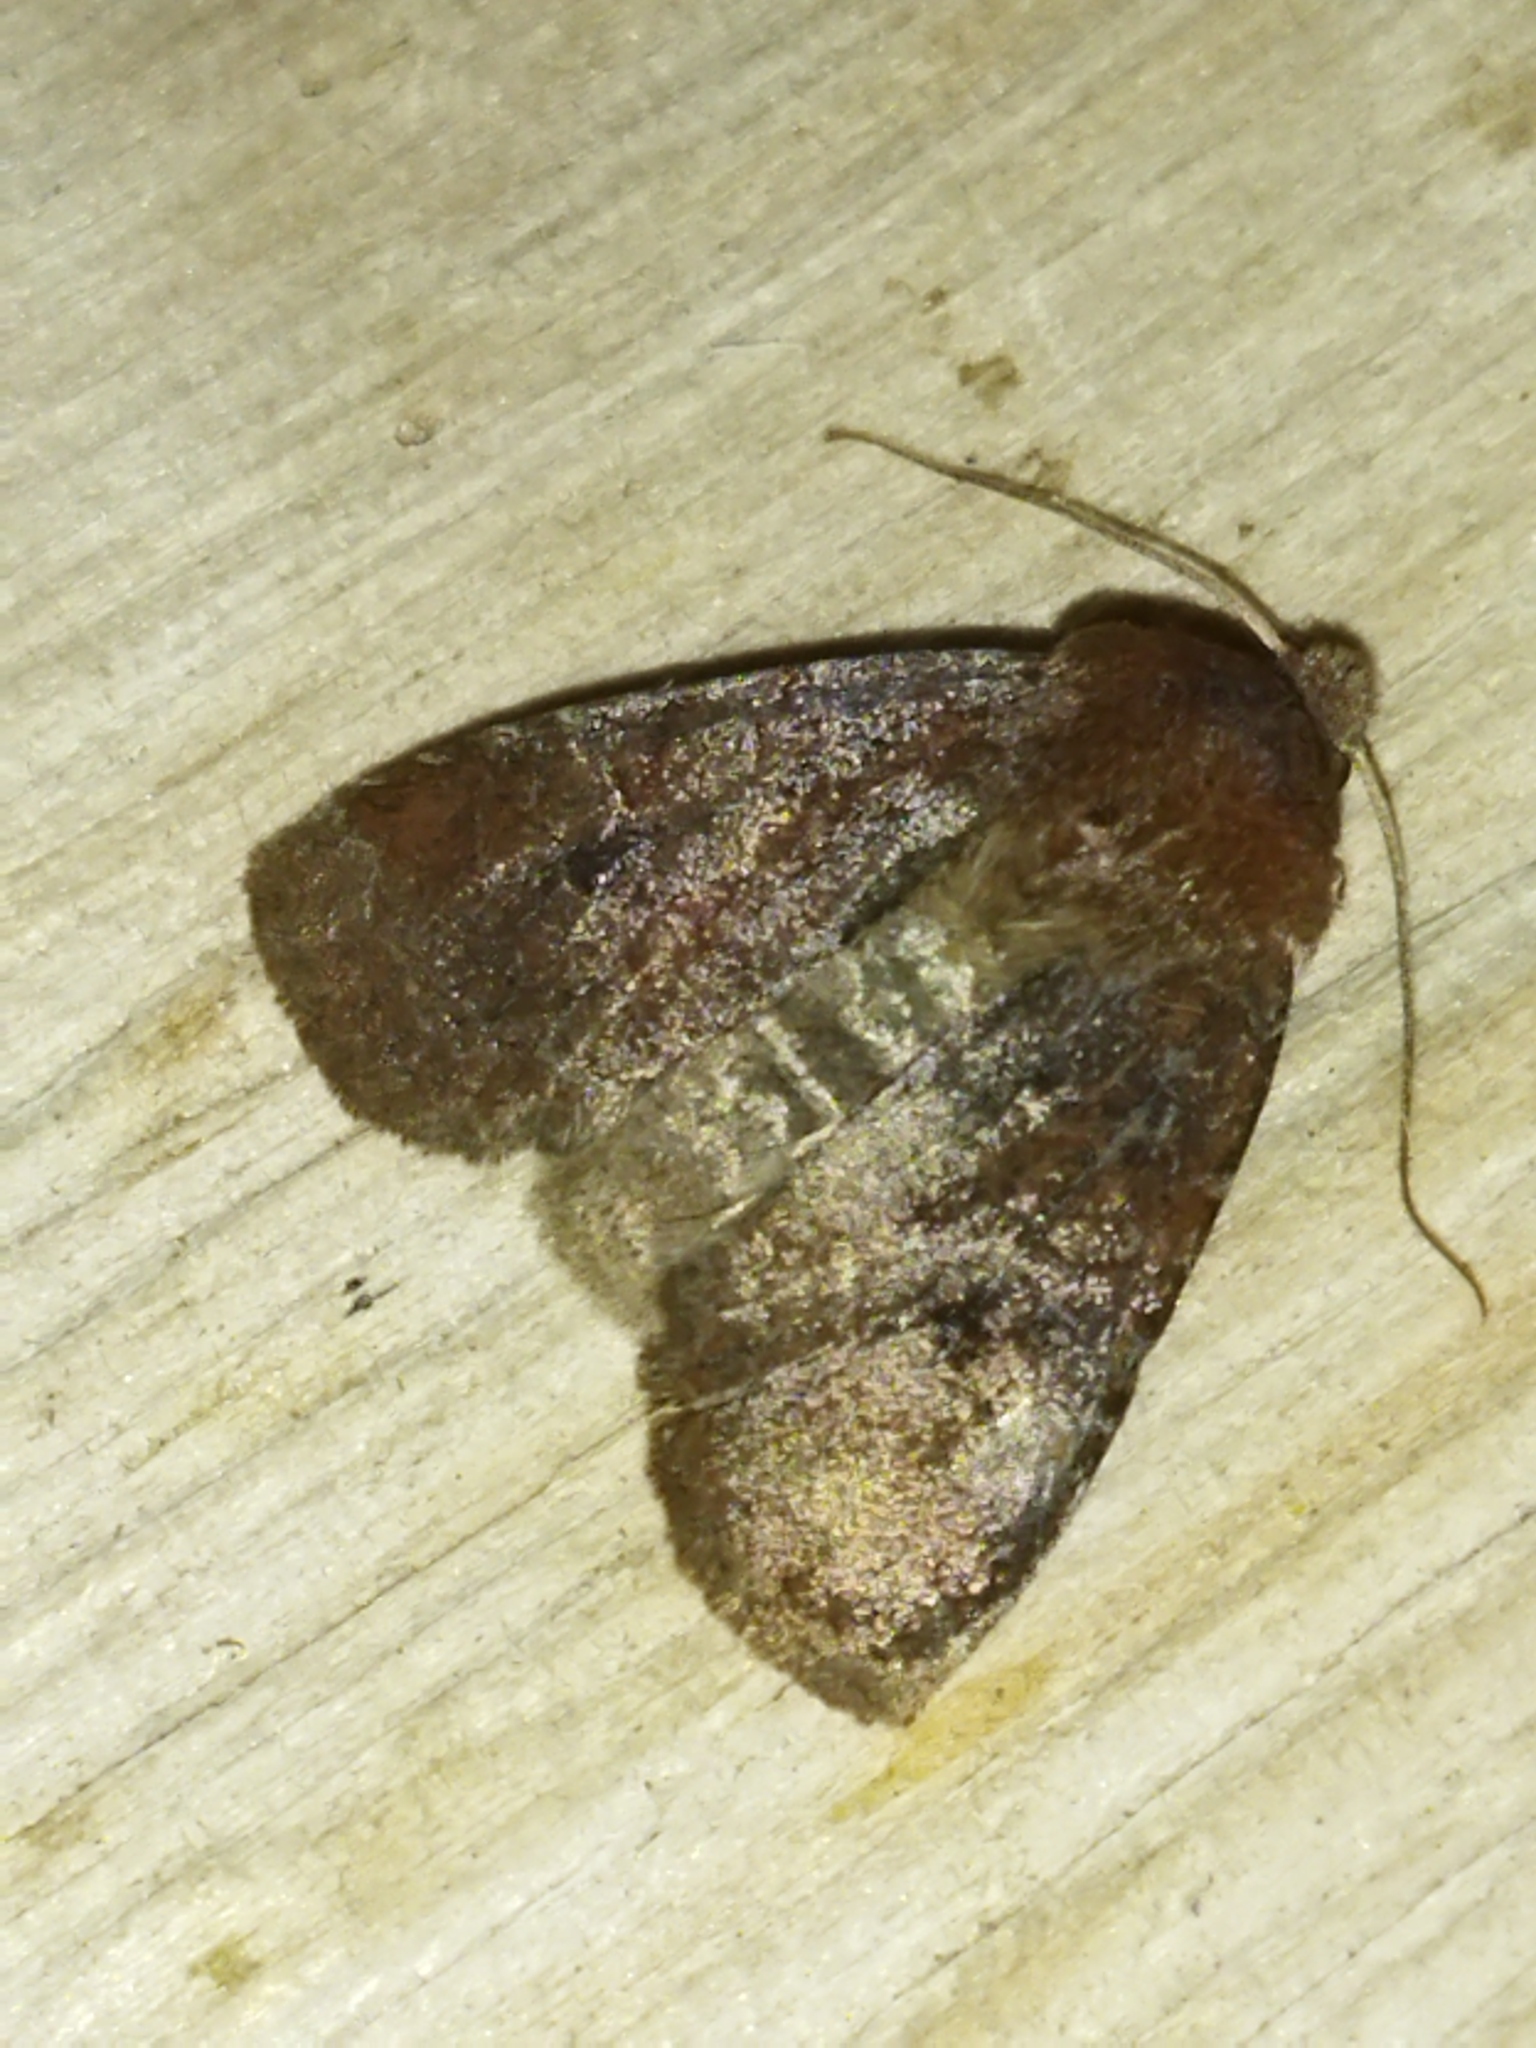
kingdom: Animalia
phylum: Arthropoda
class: Insecta
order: Lepidoptera
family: Noctuidae
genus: Conistra
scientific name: Conistra vaccinii
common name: Chestnut
